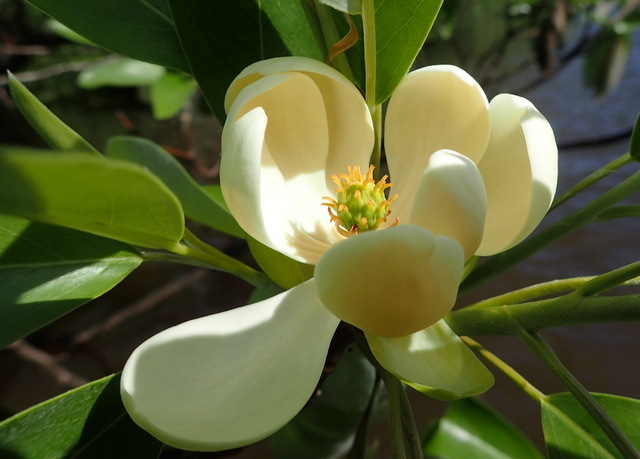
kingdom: Plantae
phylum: Tracheophyta
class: Magnoliopsida
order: Magnoliales
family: Magnoliaceae
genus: Magnolia
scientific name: Magnolia virginiana
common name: Swamp bay
